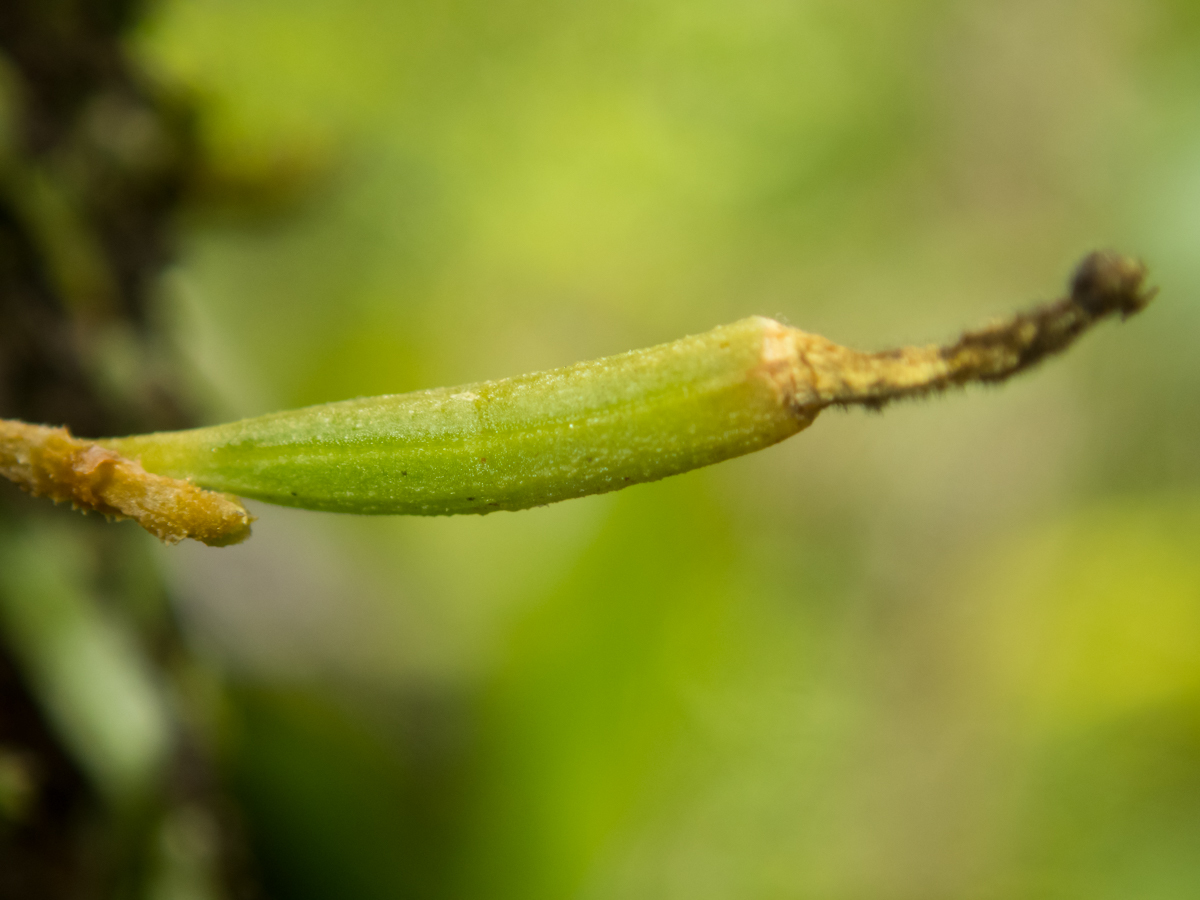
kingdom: Plantae
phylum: Tracheophyta
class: Liliopsida
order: Asparagales
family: Orchidaceae
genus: Taeniophyllum
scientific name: Taeniophyllum pusillum
